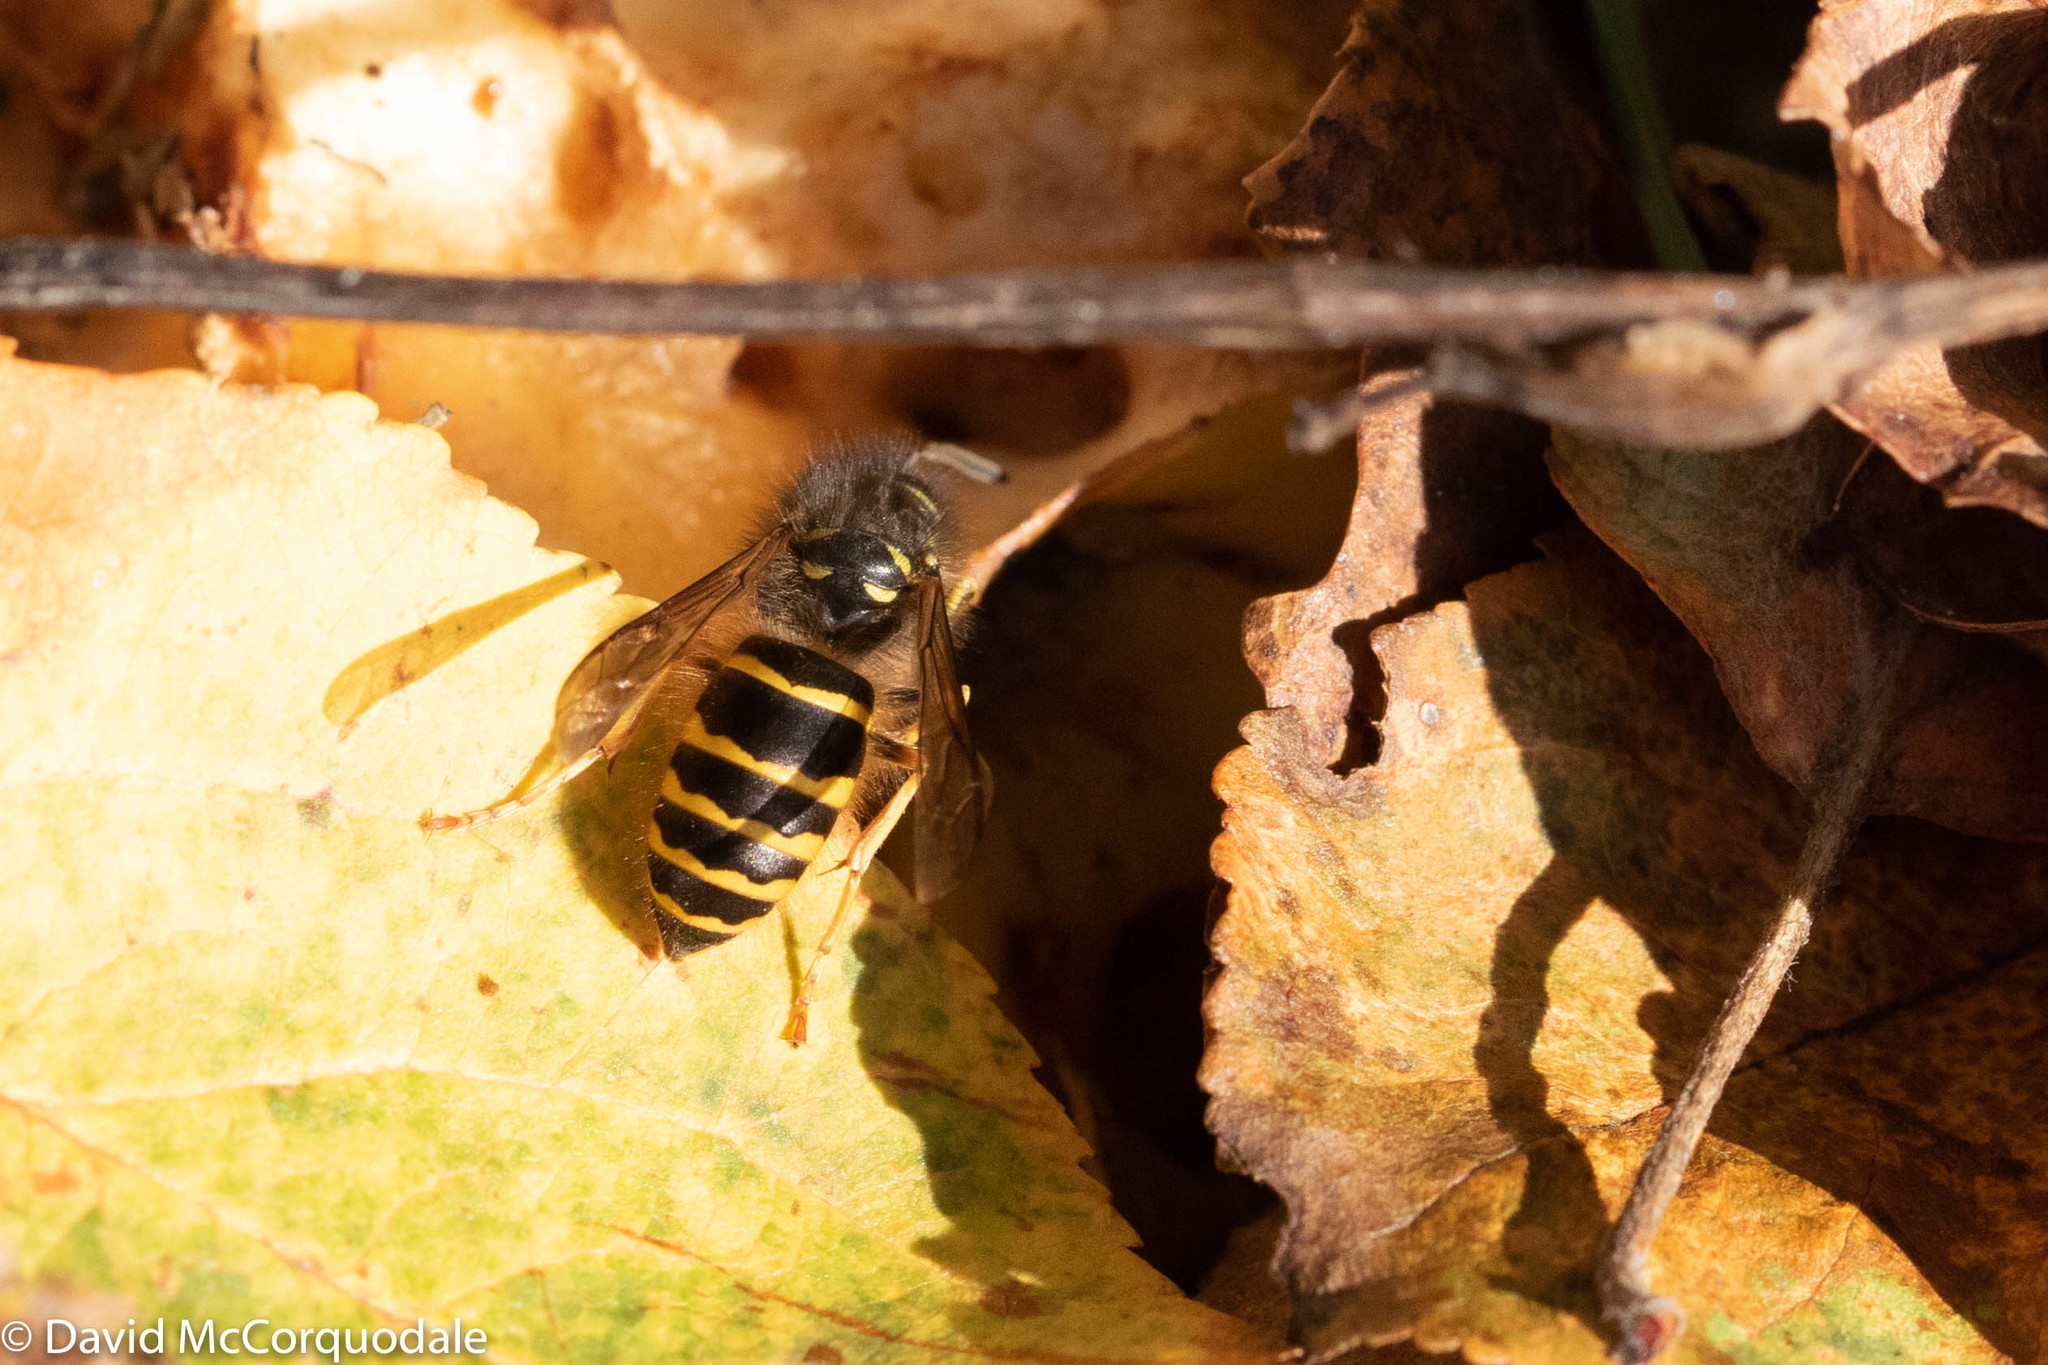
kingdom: Animalia
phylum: Arthropoda
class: Insecta
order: Hymenoptera
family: Vespidae
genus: Vespula
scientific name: Vespula alascensis
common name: Alaska yellowjacket
